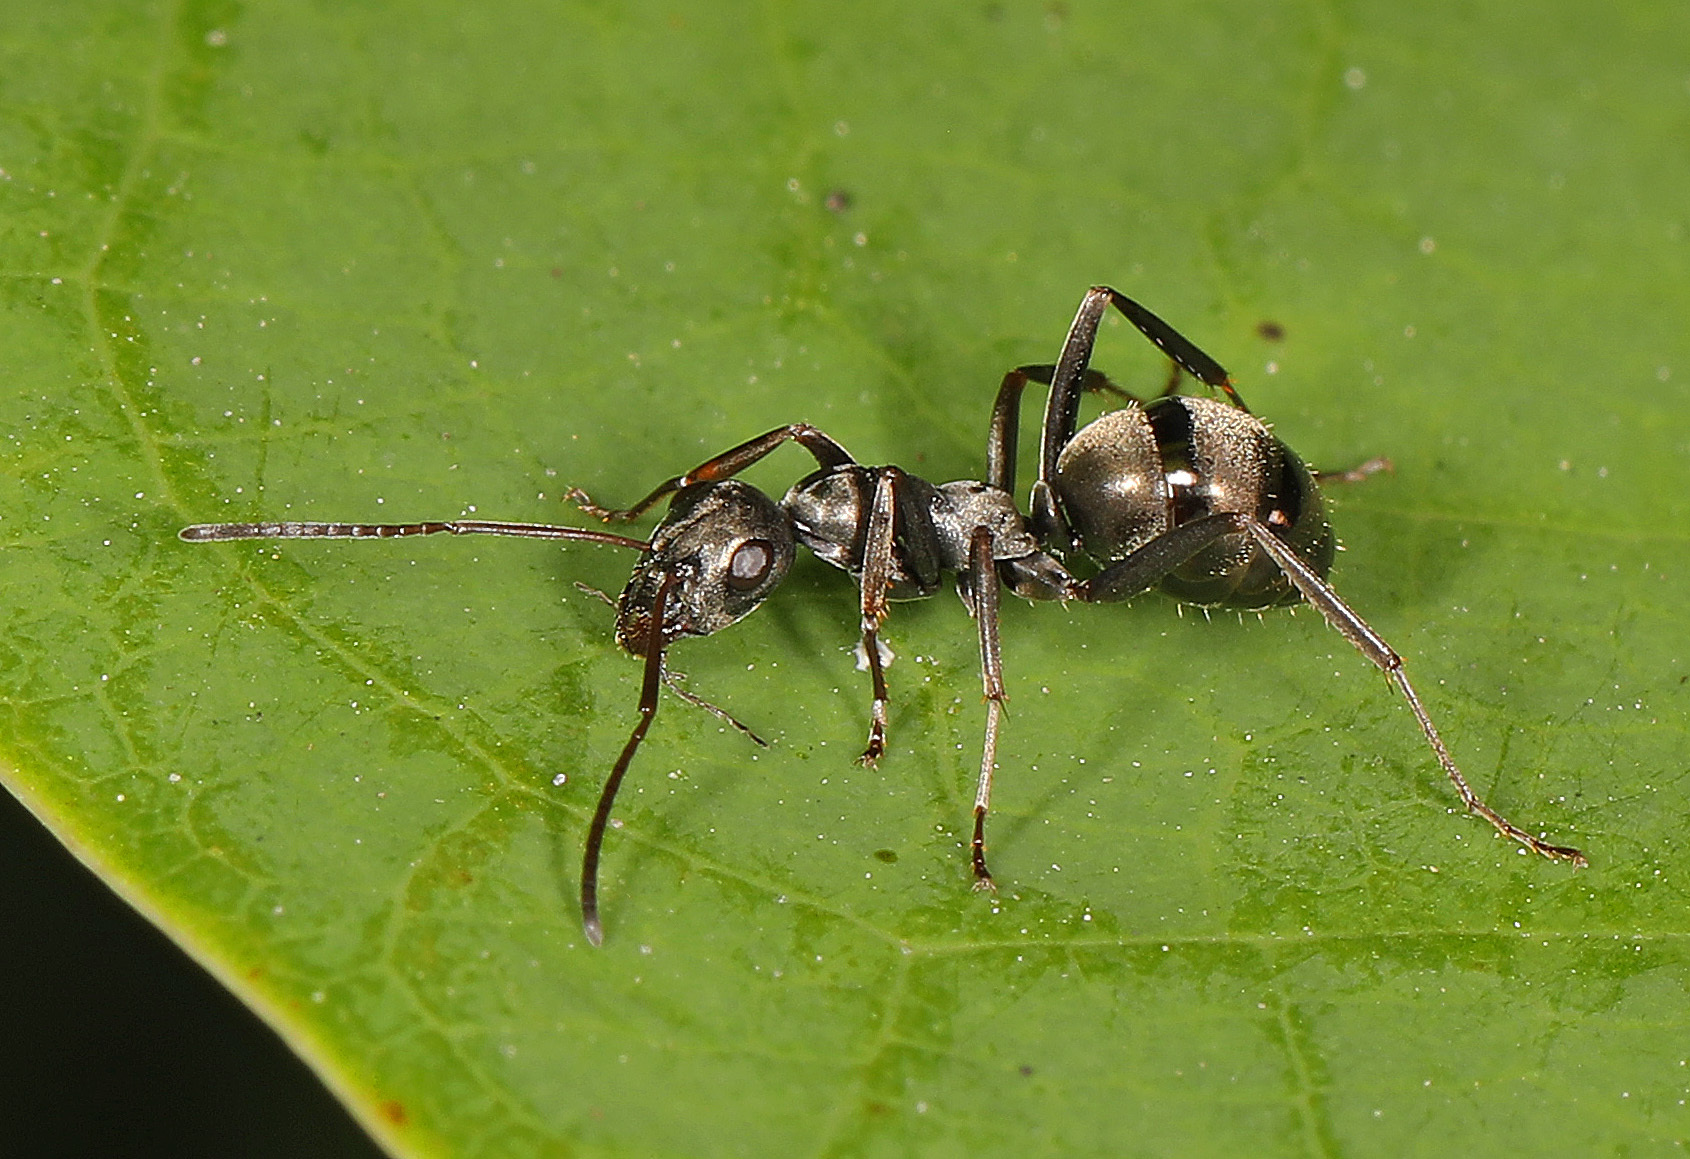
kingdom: Animalia
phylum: Arthropoda
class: Insecta
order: Hymenoptera
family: Formicidae
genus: Formica
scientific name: Formica subsericea
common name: Silky field ant
